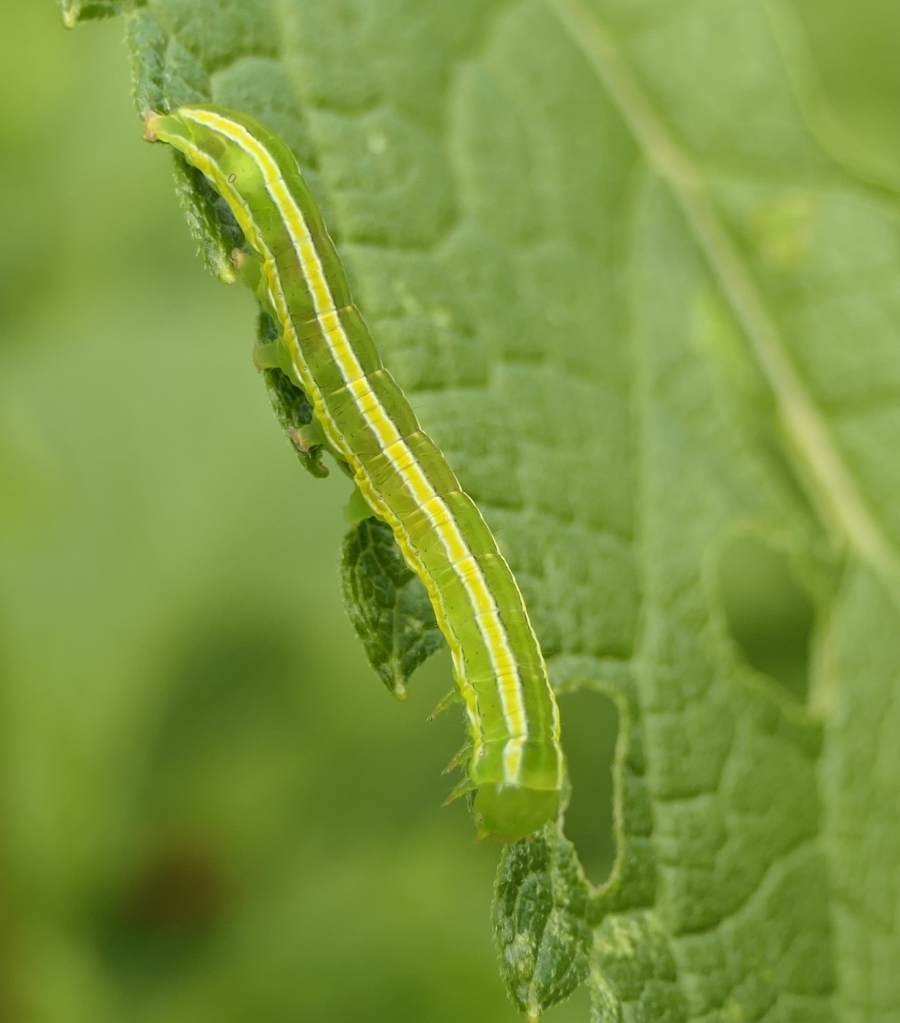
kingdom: Animalia
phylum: Arthropoda
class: Insecta
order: Lepidoptera
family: Noctuidae
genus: Melanchra
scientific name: Melanchra assimilis
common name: Black arches
